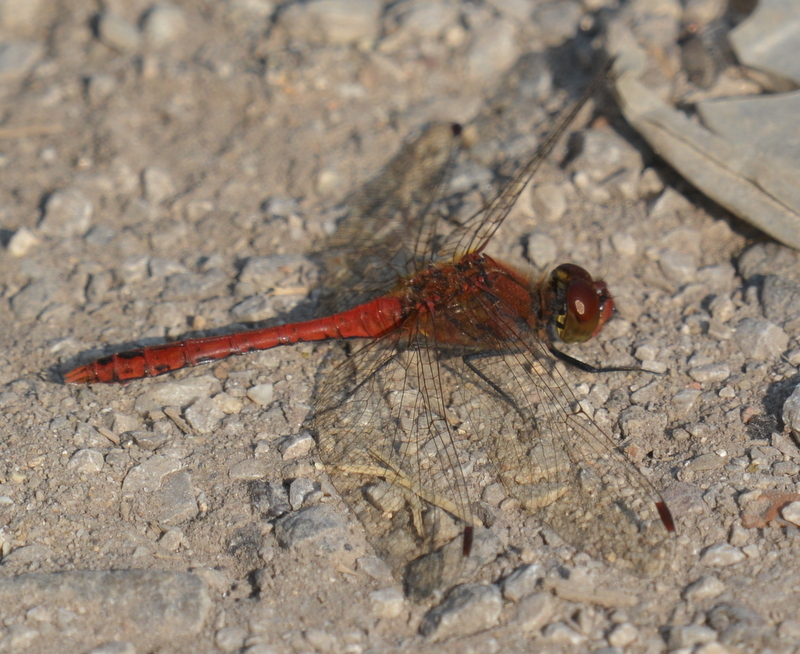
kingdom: Animalia
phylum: Arthropoda
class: Insecta
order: Odonata
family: Libellulidae
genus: Sympetrum
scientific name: Sympetrum sanguineum
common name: Ruddy darter
